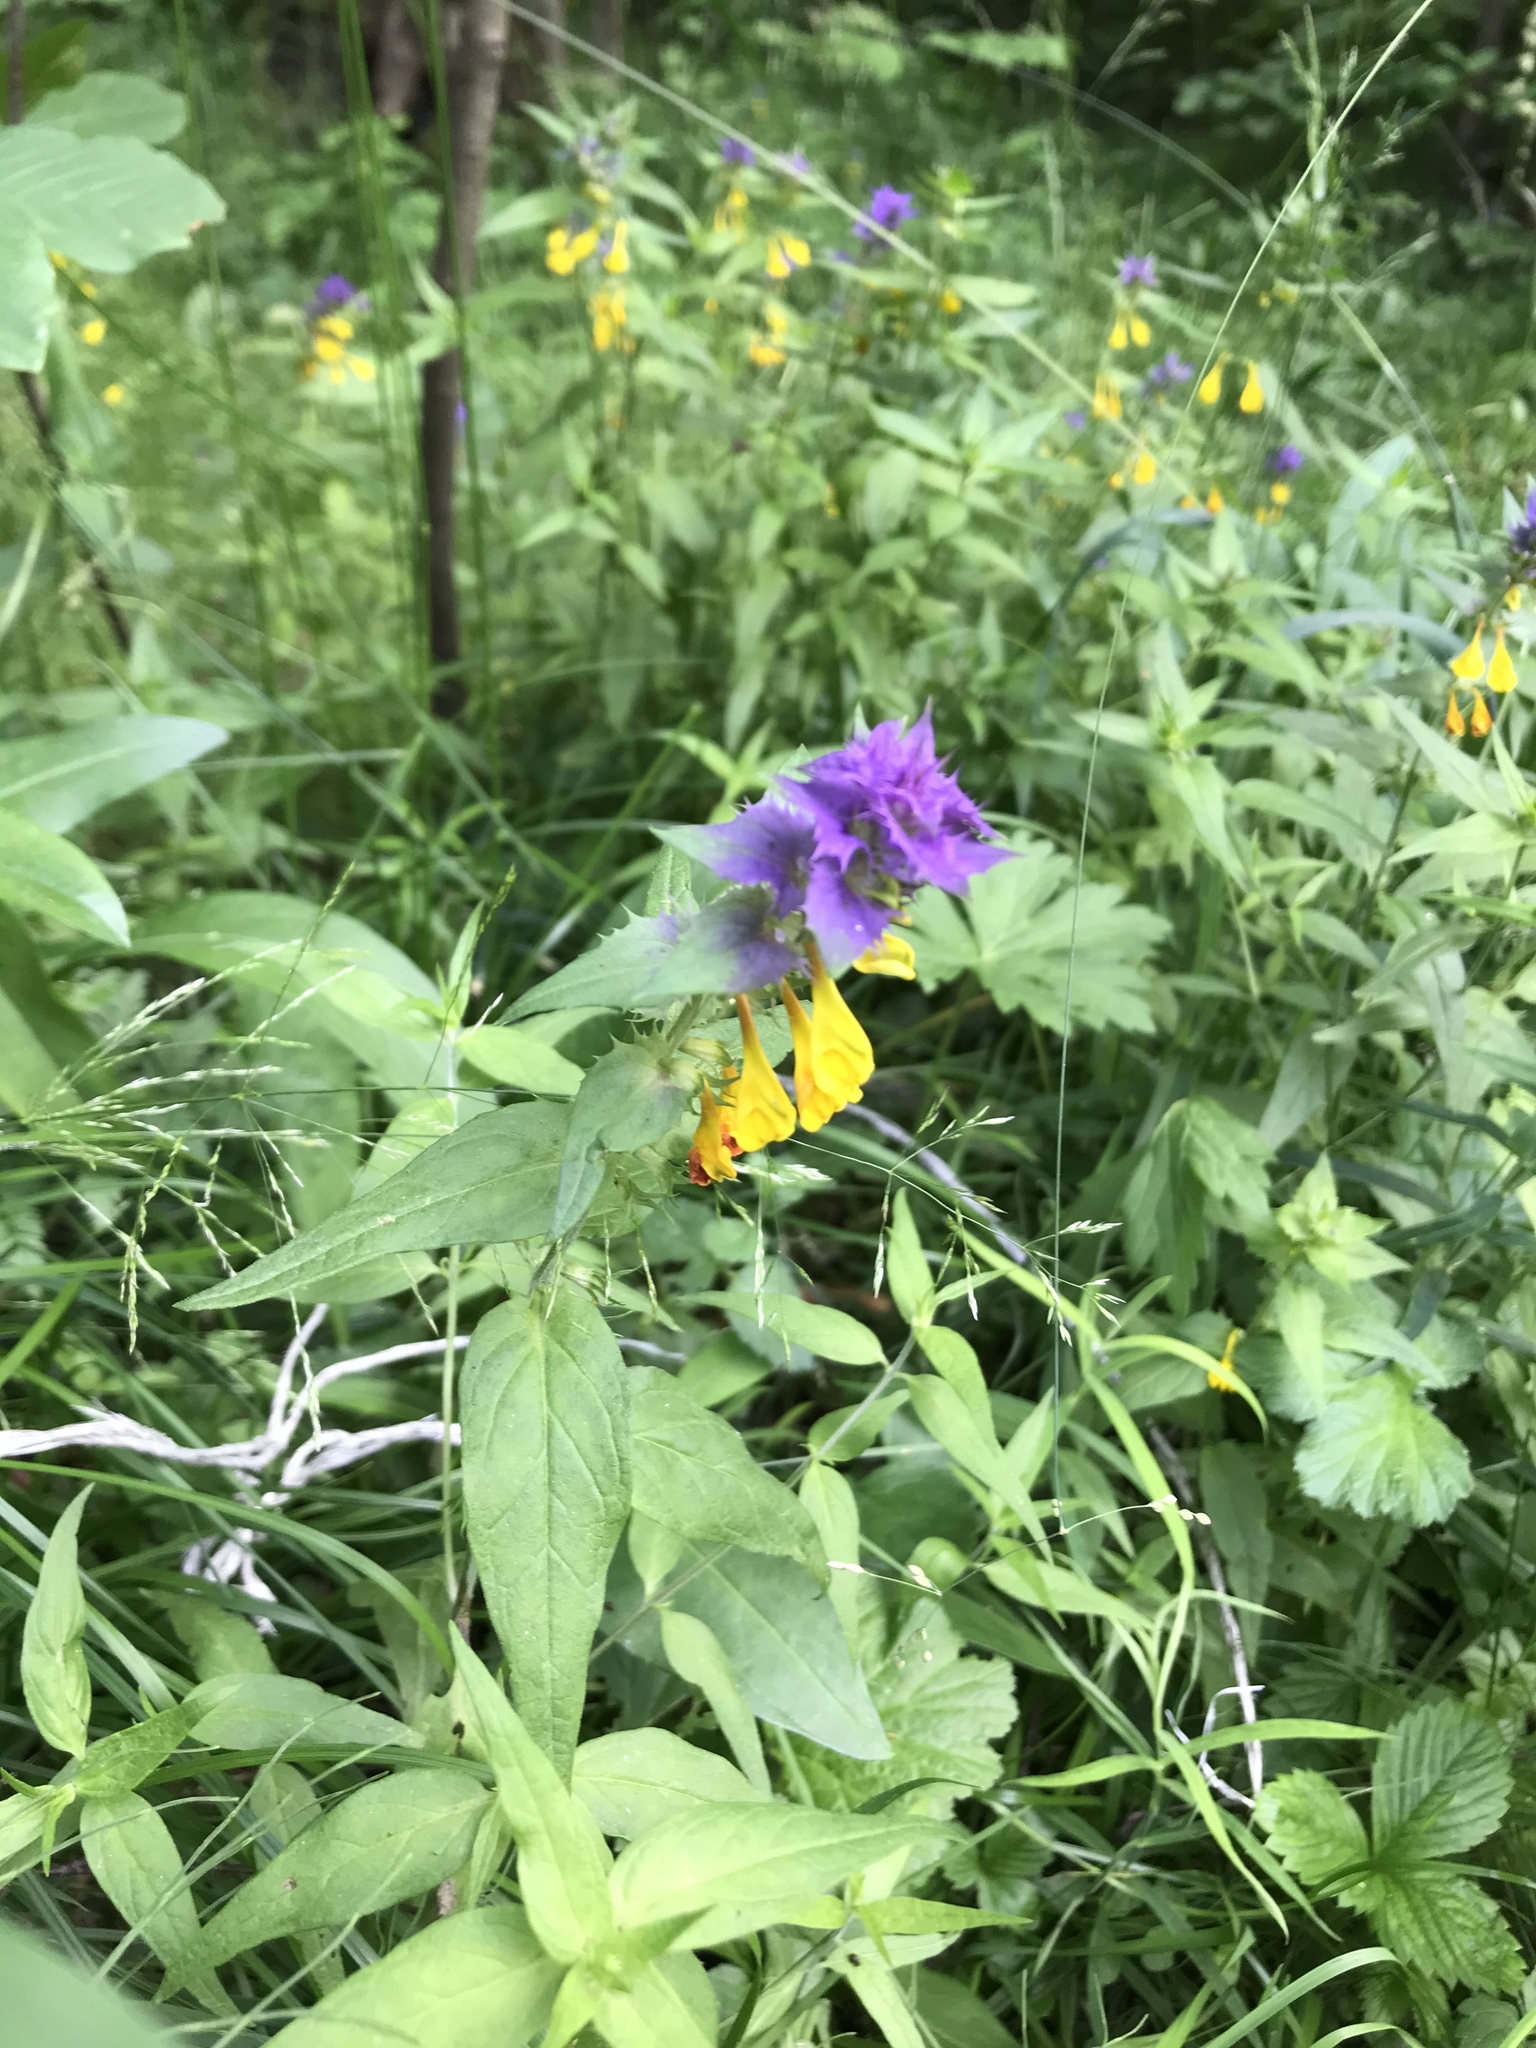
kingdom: Plantae
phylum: Tracheophyta
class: Magnoliopsida
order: Lamiales
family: Orobanchaceae
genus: Melampyrum
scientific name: Melampyrum nemorosum
